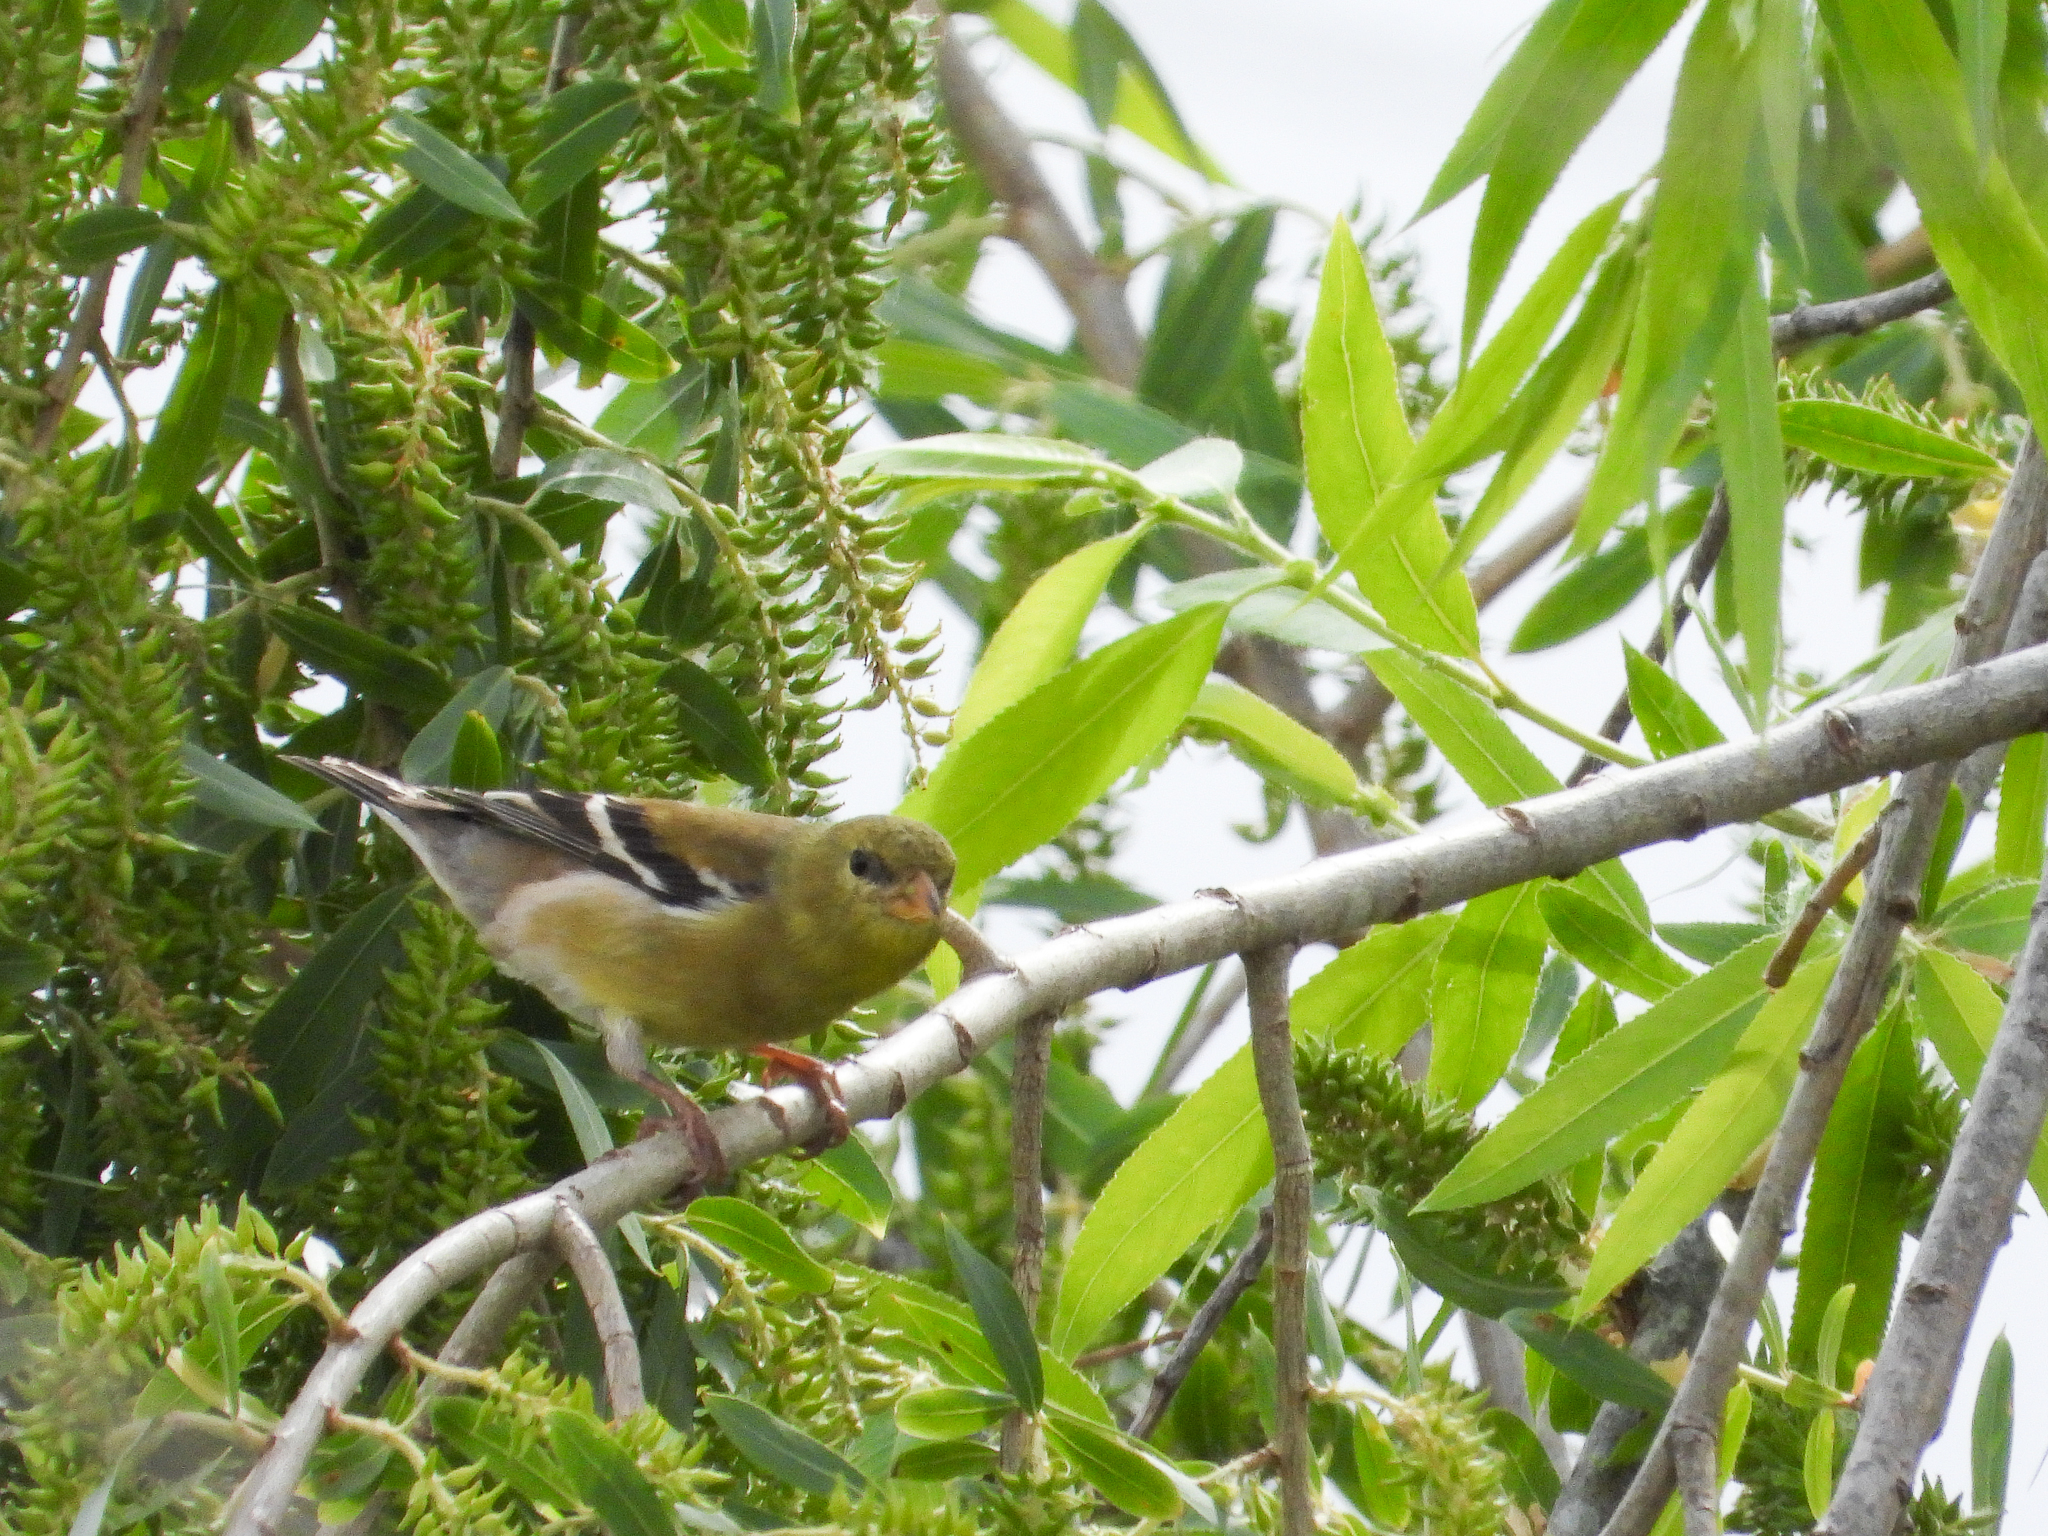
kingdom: Animalia
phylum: Chordata
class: Aves
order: Passeriformes
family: Fringillidae
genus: Spinus
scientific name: Spinus tristis
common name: American goldfinch
